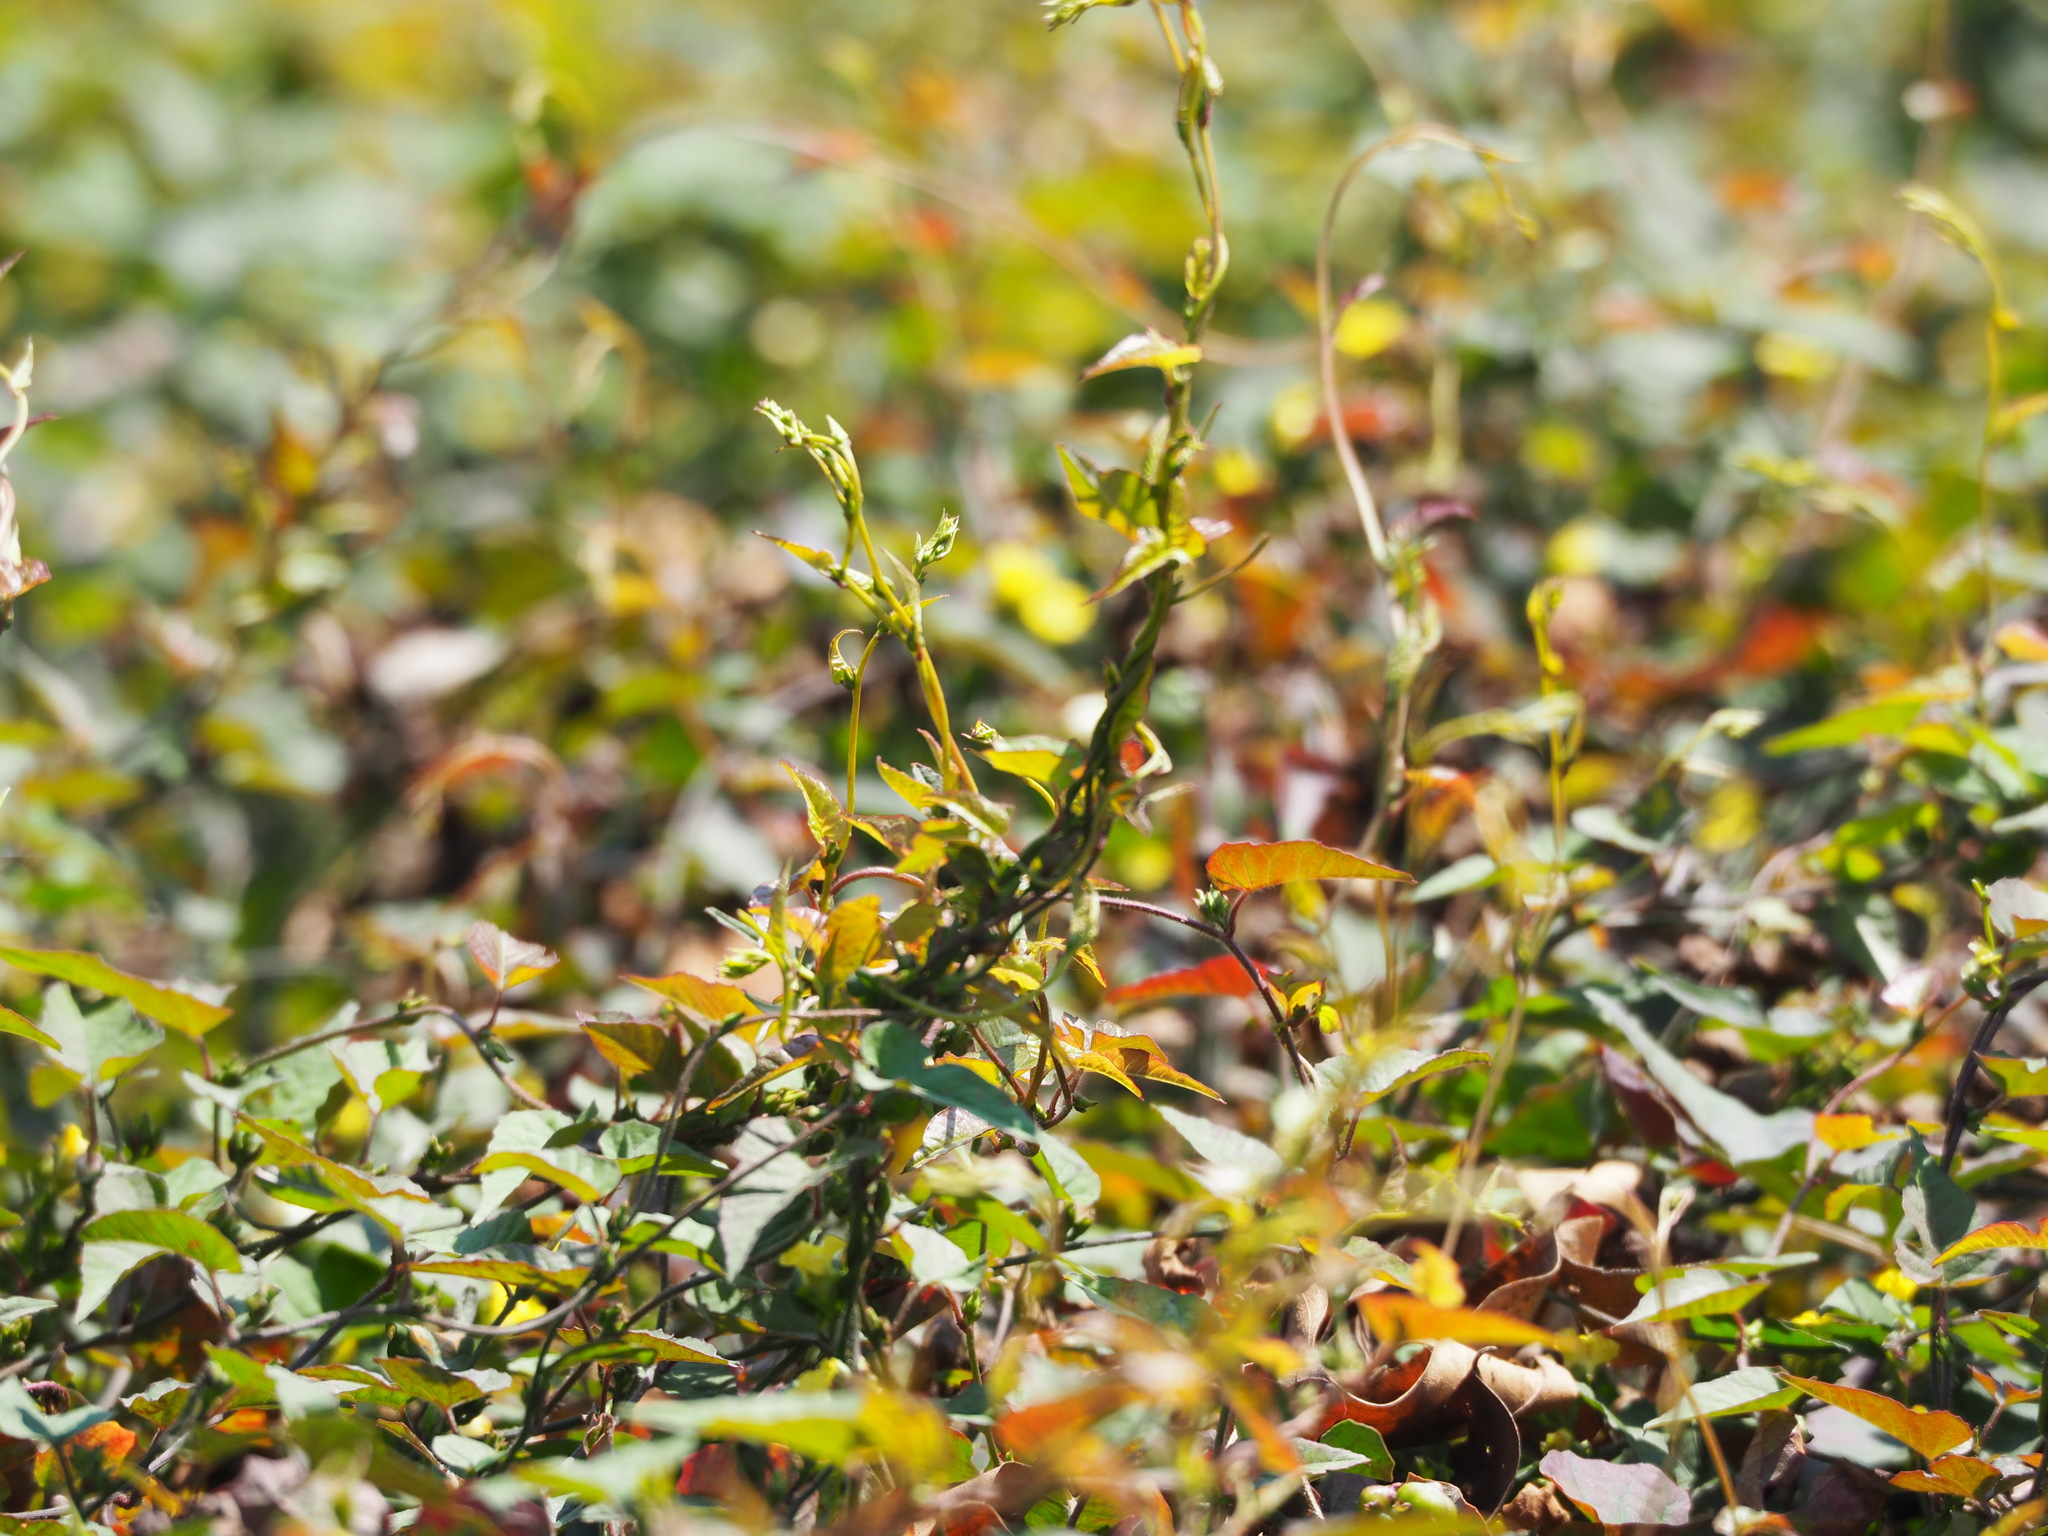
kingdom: Plantae
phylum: Tracheophyta
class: Magnoliopsida
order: Solanales
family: Convolvulaceae
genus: Merremia
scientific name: Merremia hederacea
